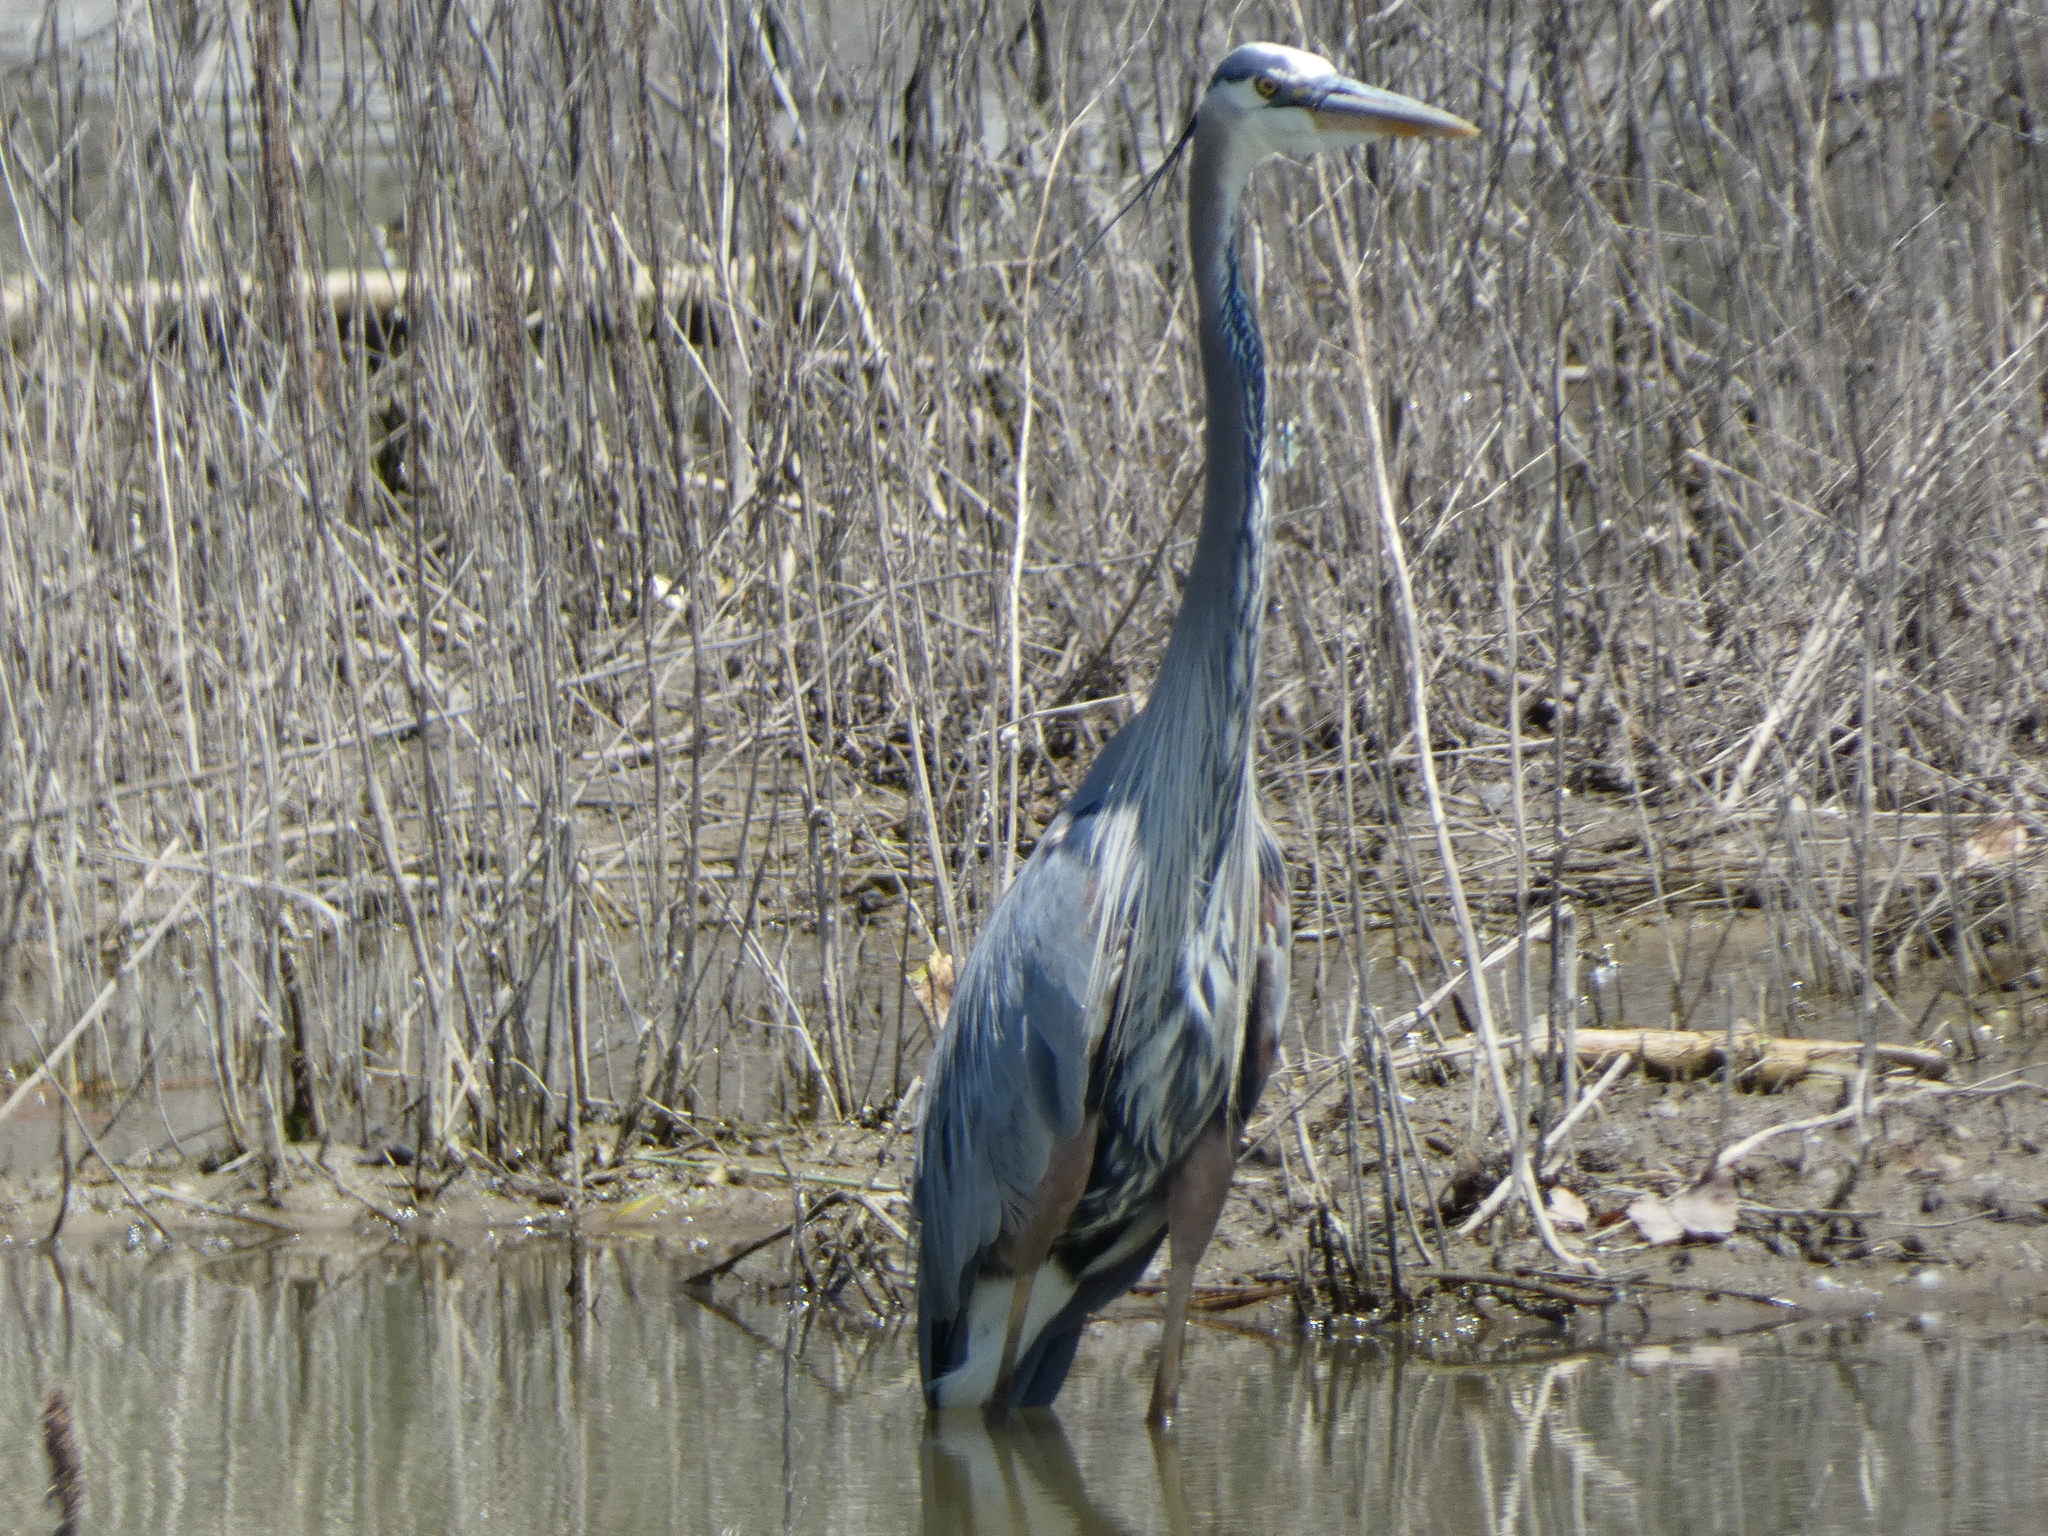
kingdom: Animalia
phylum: Chordata
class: Aves
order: Pelecaniformes
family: Ardeidae
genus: Ardea
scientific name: Ardea herodias
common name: Great blue heron
